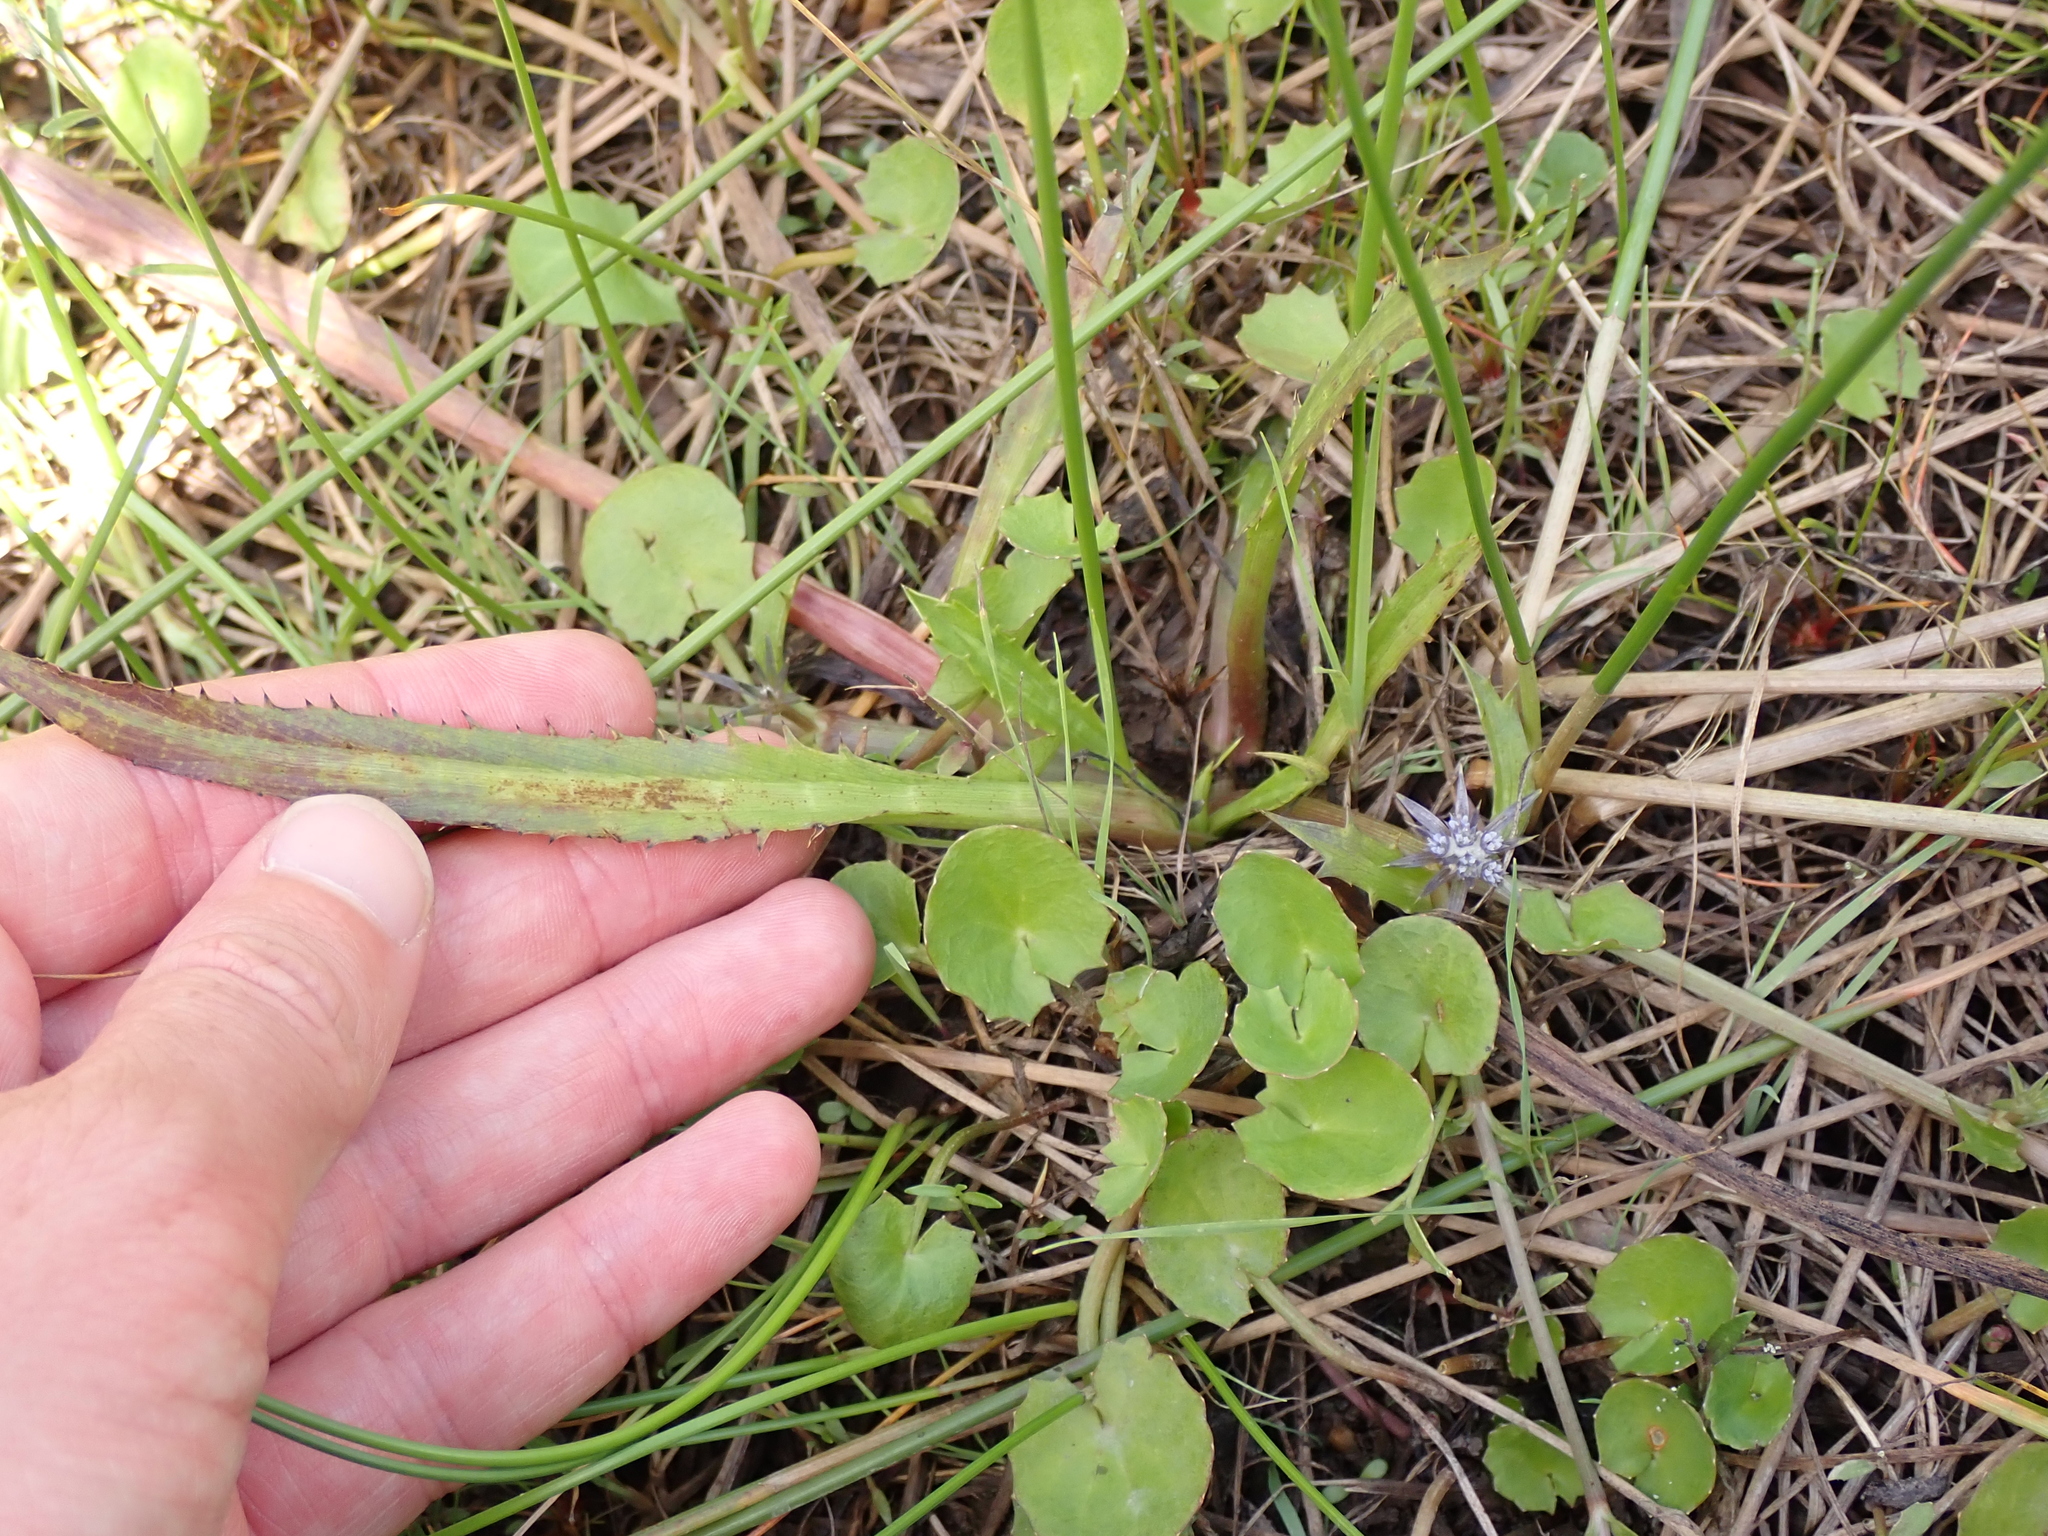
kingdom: Plantae
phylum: Tracheophyta
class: Magnoliopsida
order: Apiales
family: Apiaceae
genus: Eryngium
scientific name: Eryngium vesiculosum
